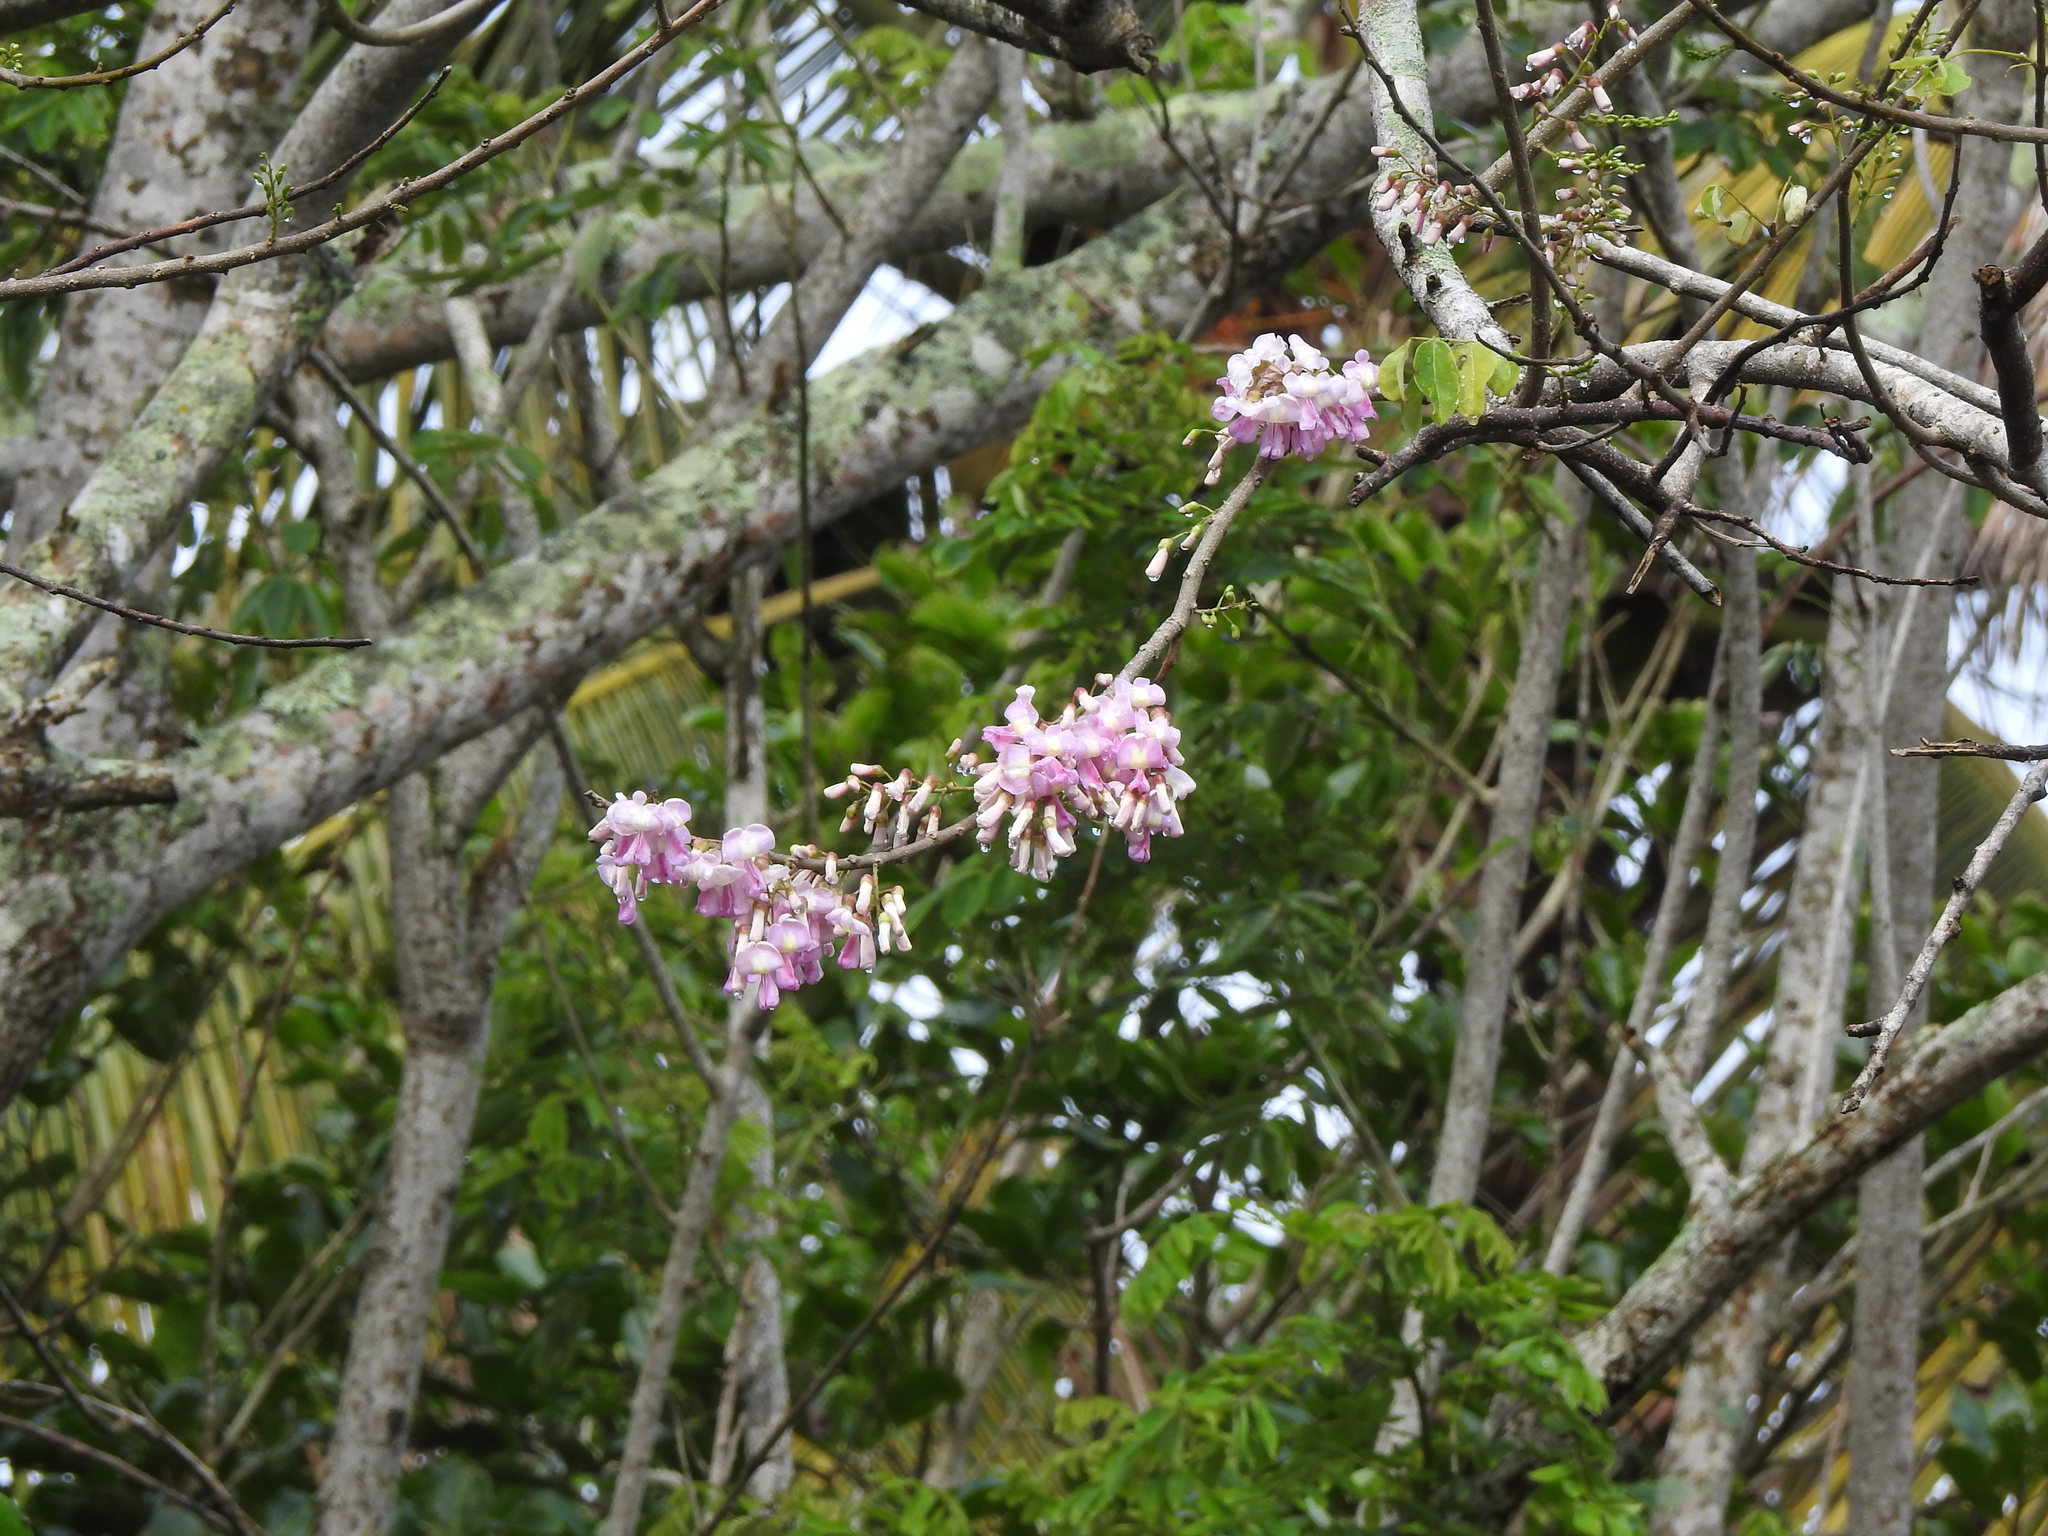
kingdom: Plantae
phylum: Tracheophyta
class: Magnoliopsida
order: Fabales
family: Fabaceae
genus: Gliricidia
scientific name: Gliricidia sepium
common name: Quickstick
